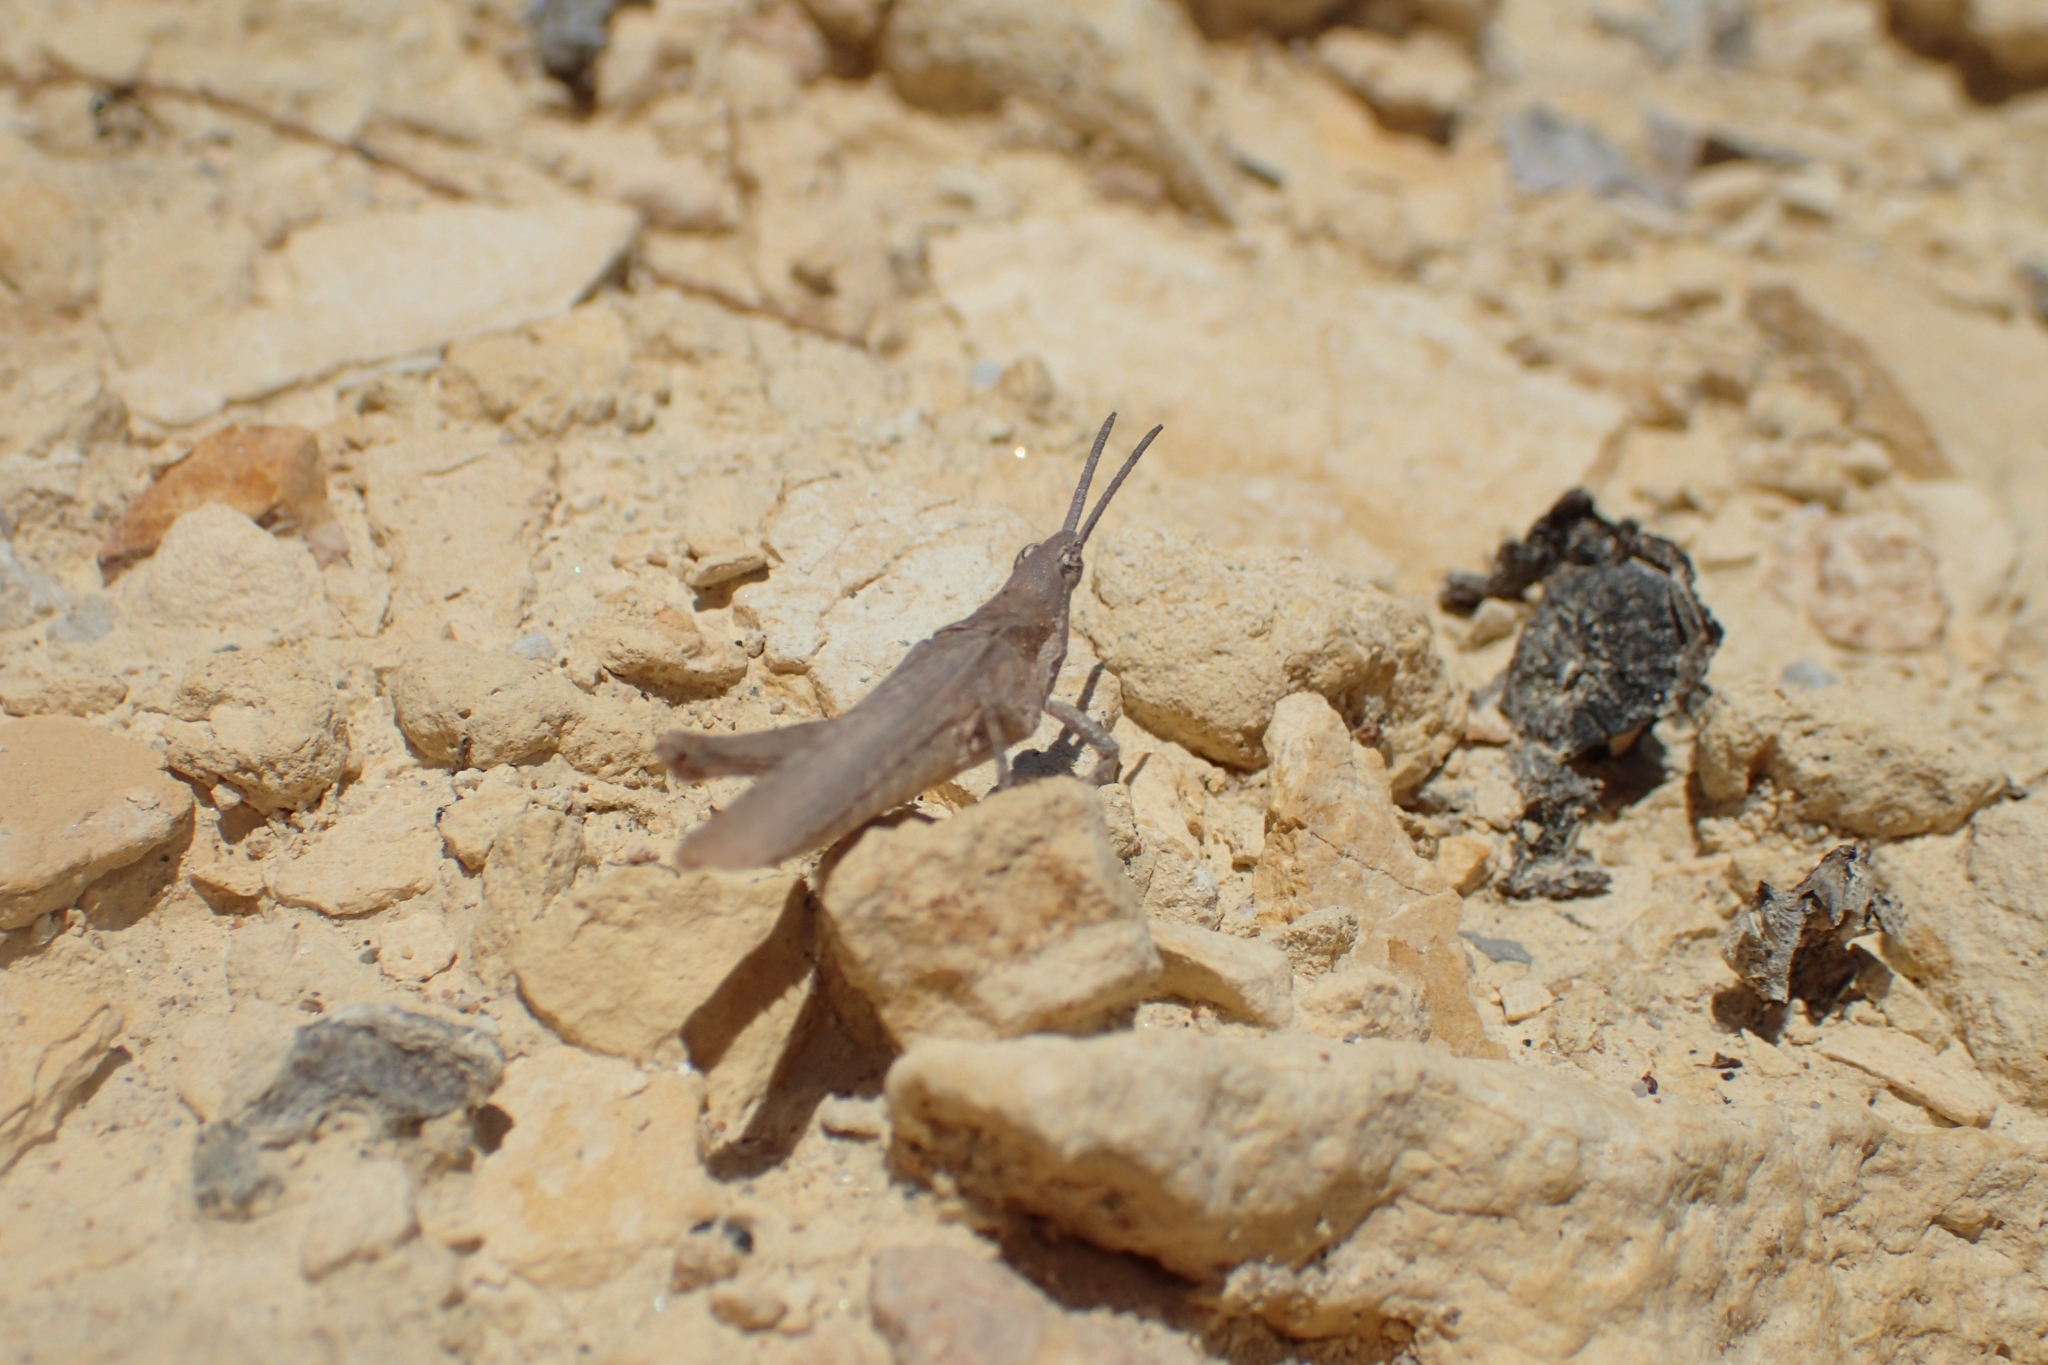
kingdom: Animalia
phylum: Arthropoda
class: Insecta
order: Orthoptera
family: Pyrgomorphidae
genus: Pyrgomorpha
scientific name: Pyrgomorpha conica
